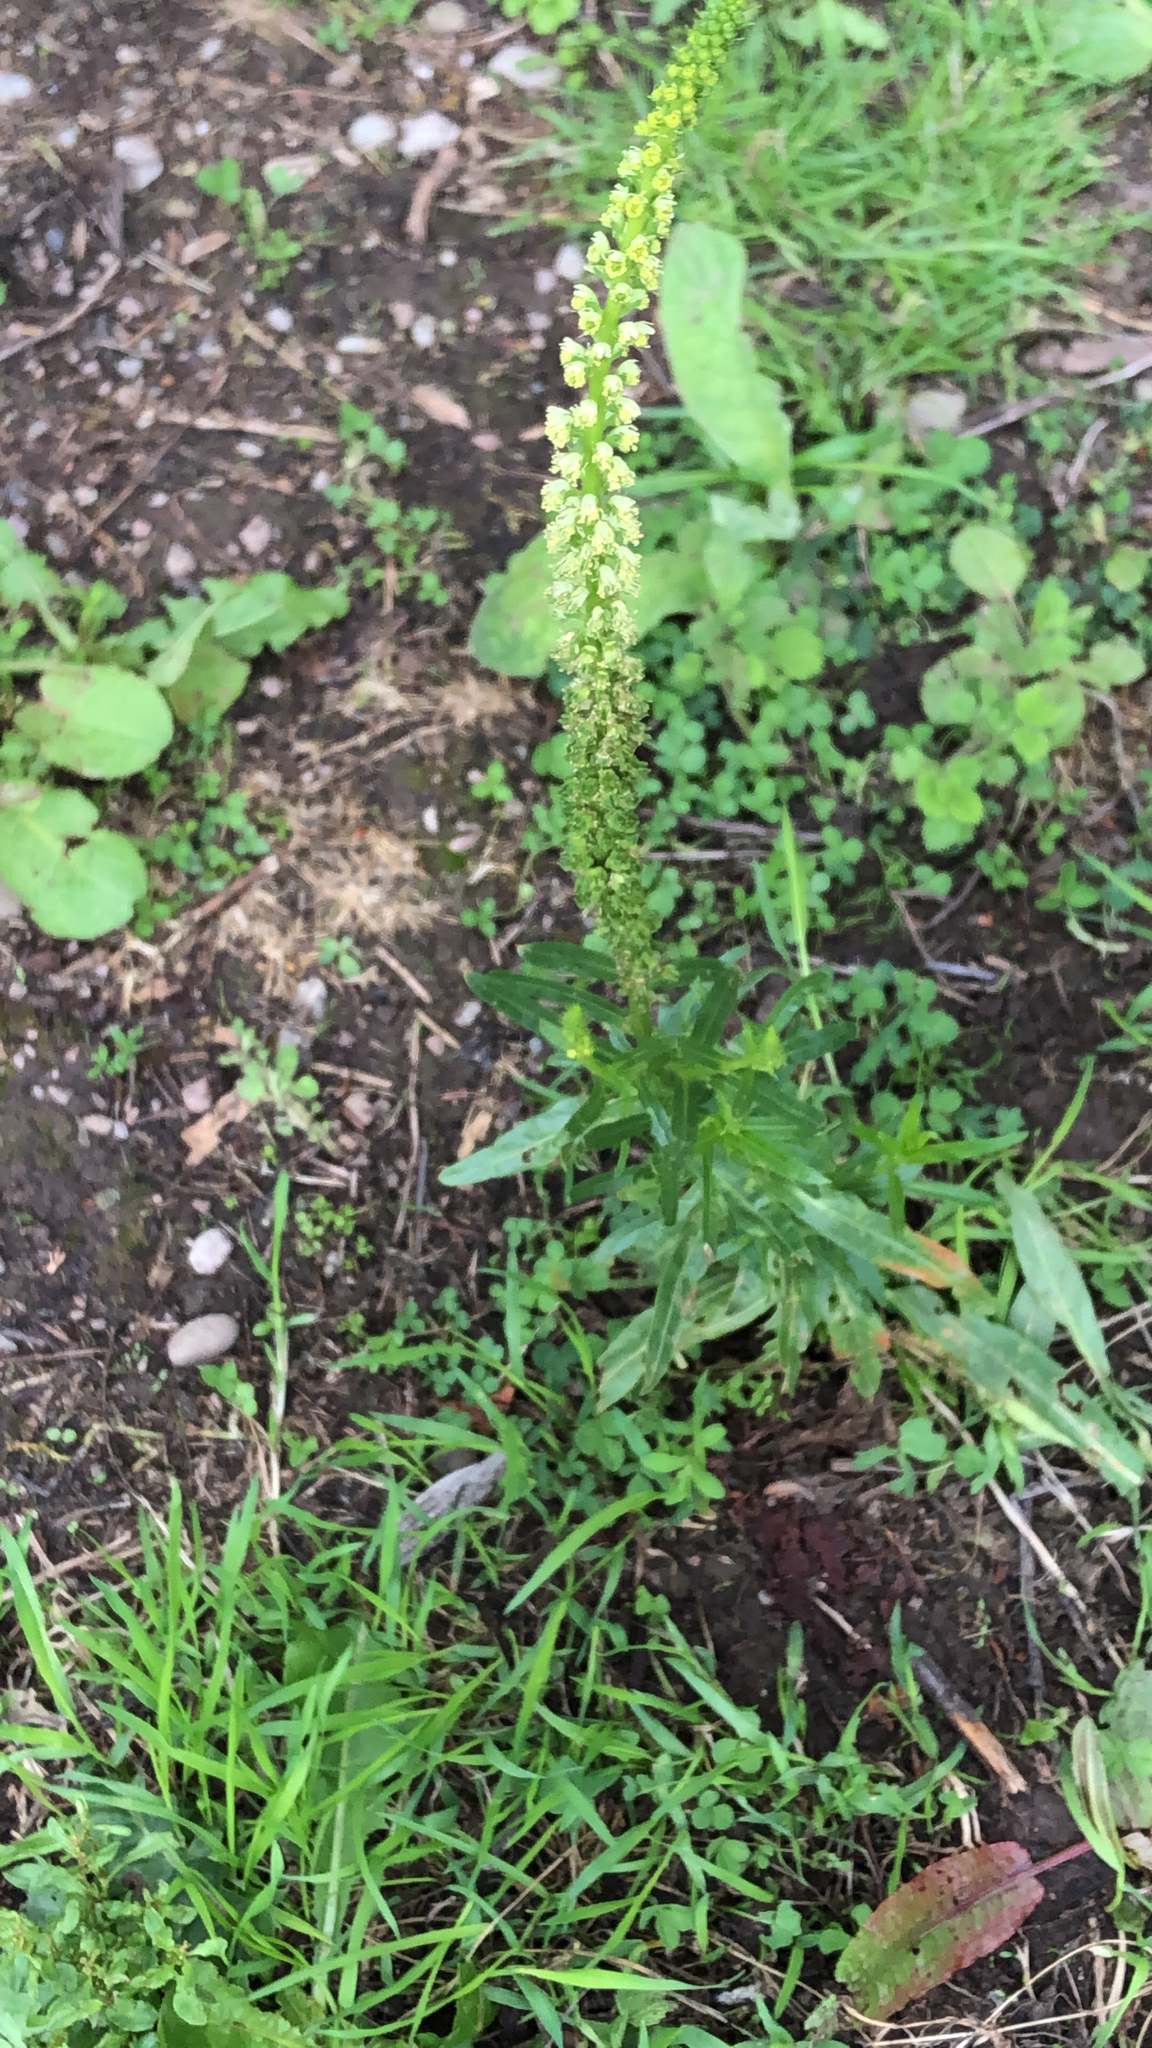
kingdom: Plantae
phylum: Tracheophyta
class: Magnoliopsida
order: Brassicales
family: Resedaceae
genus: Reseda
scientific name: Reseda luteola
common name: Weld
